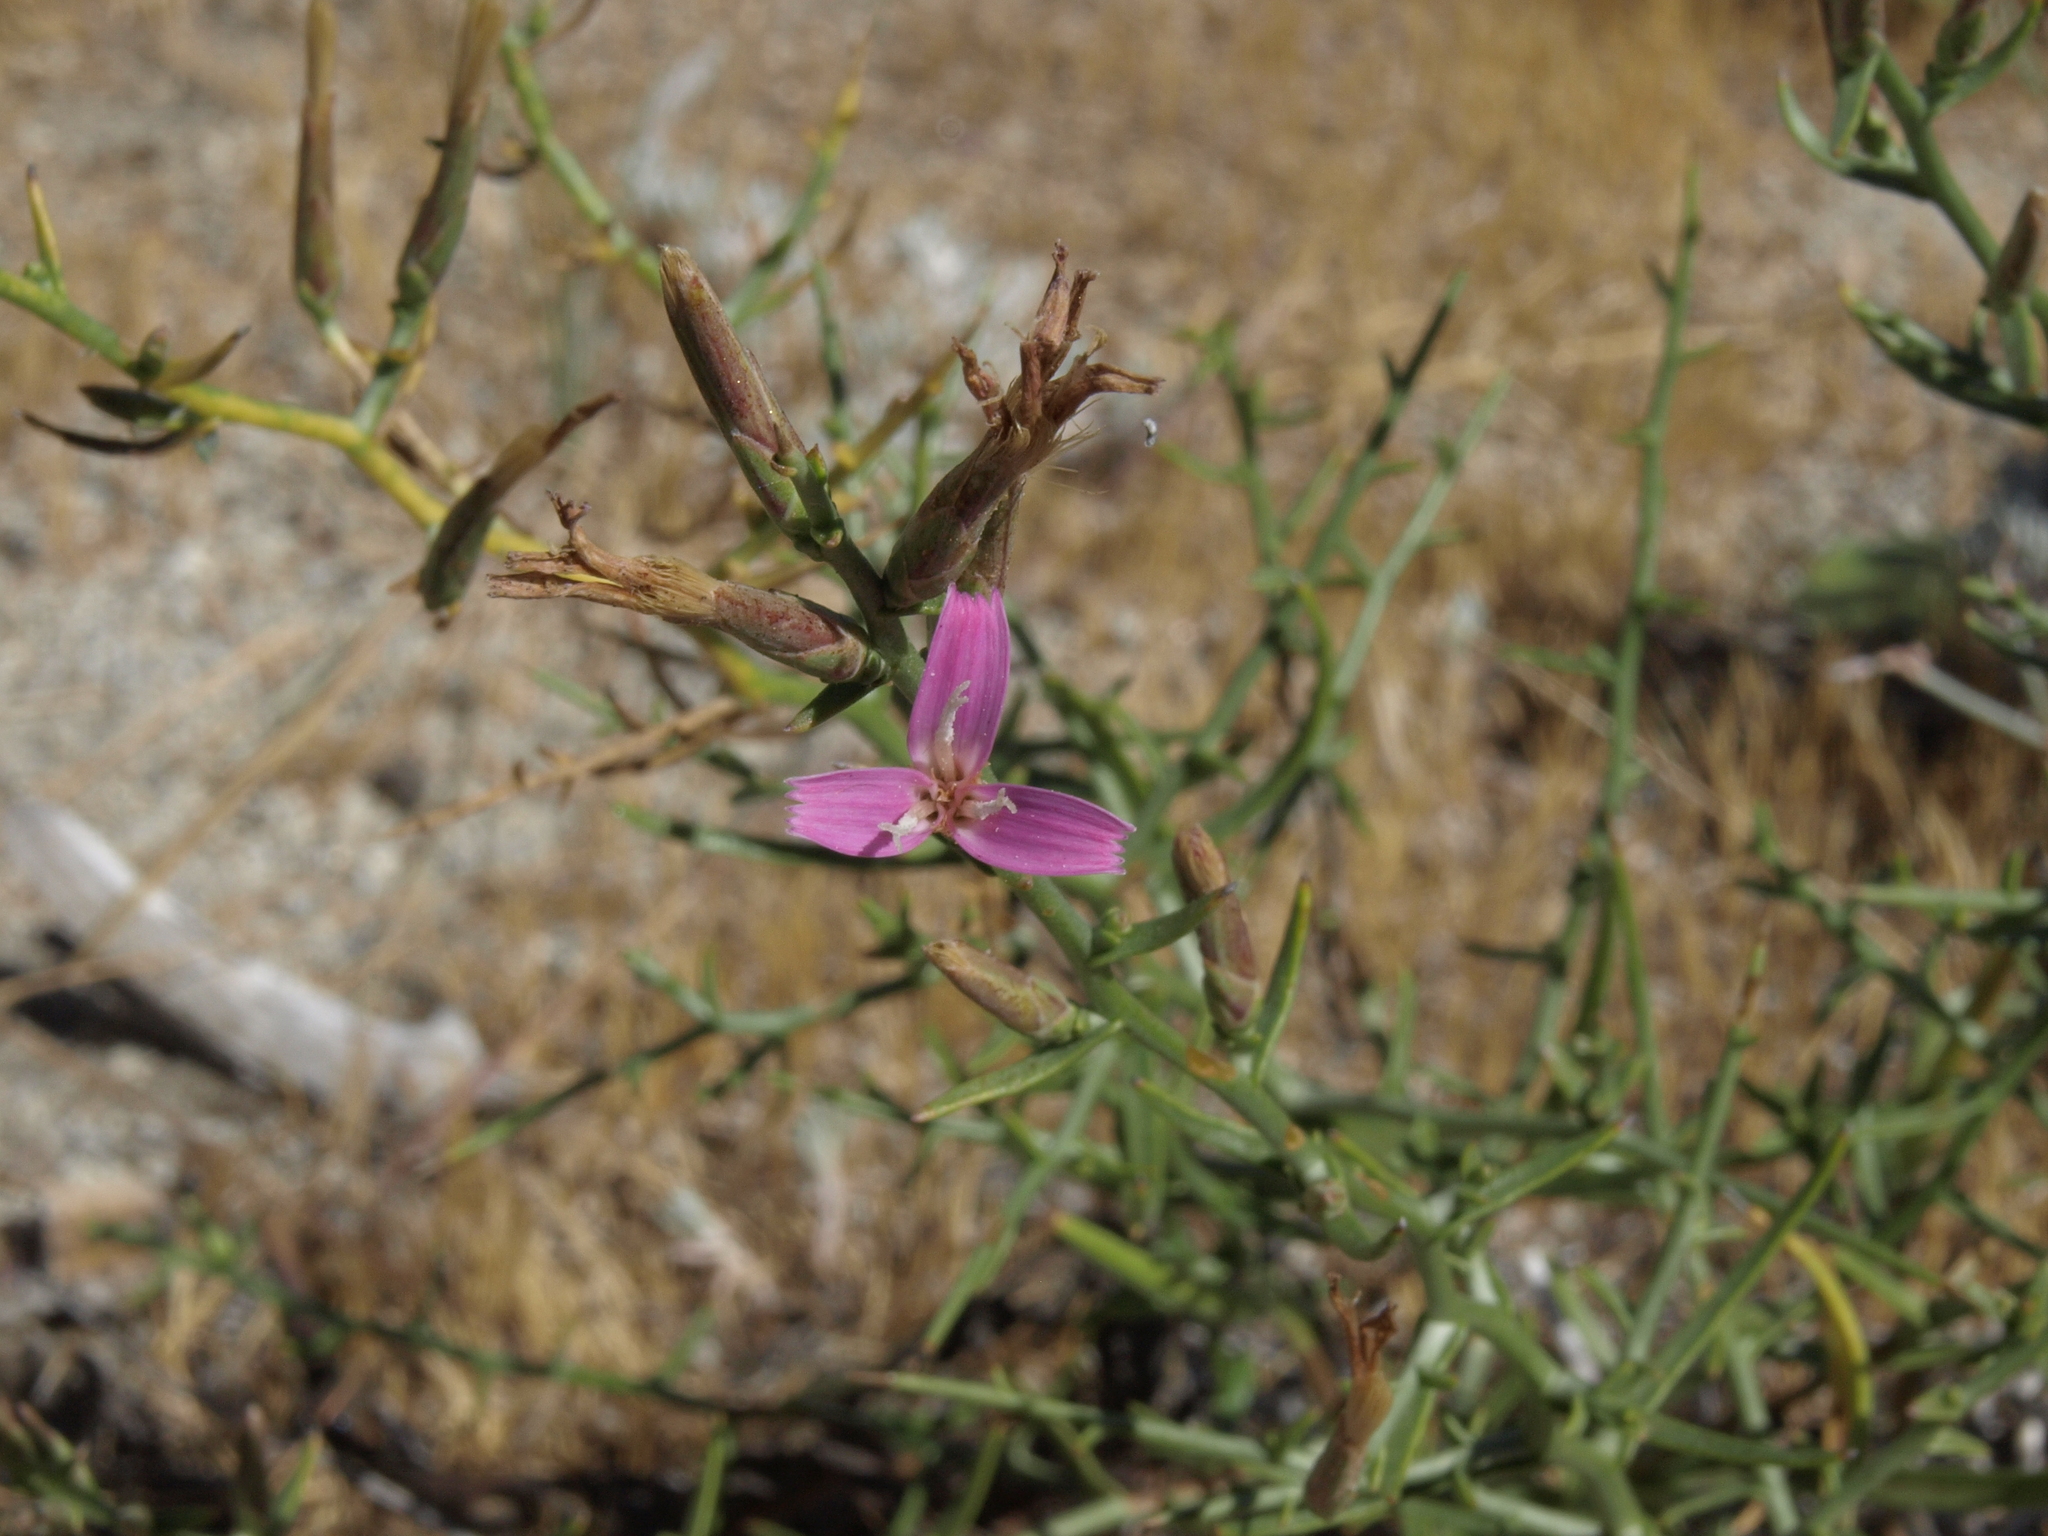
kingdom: Plantae
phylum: Tracheophyta
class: Magnoliopsida
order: Asterales
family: Asteraceae
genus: Pleiacanthus
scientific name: Pleiacanthus spinosus
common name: Thorny skeleton-weed
